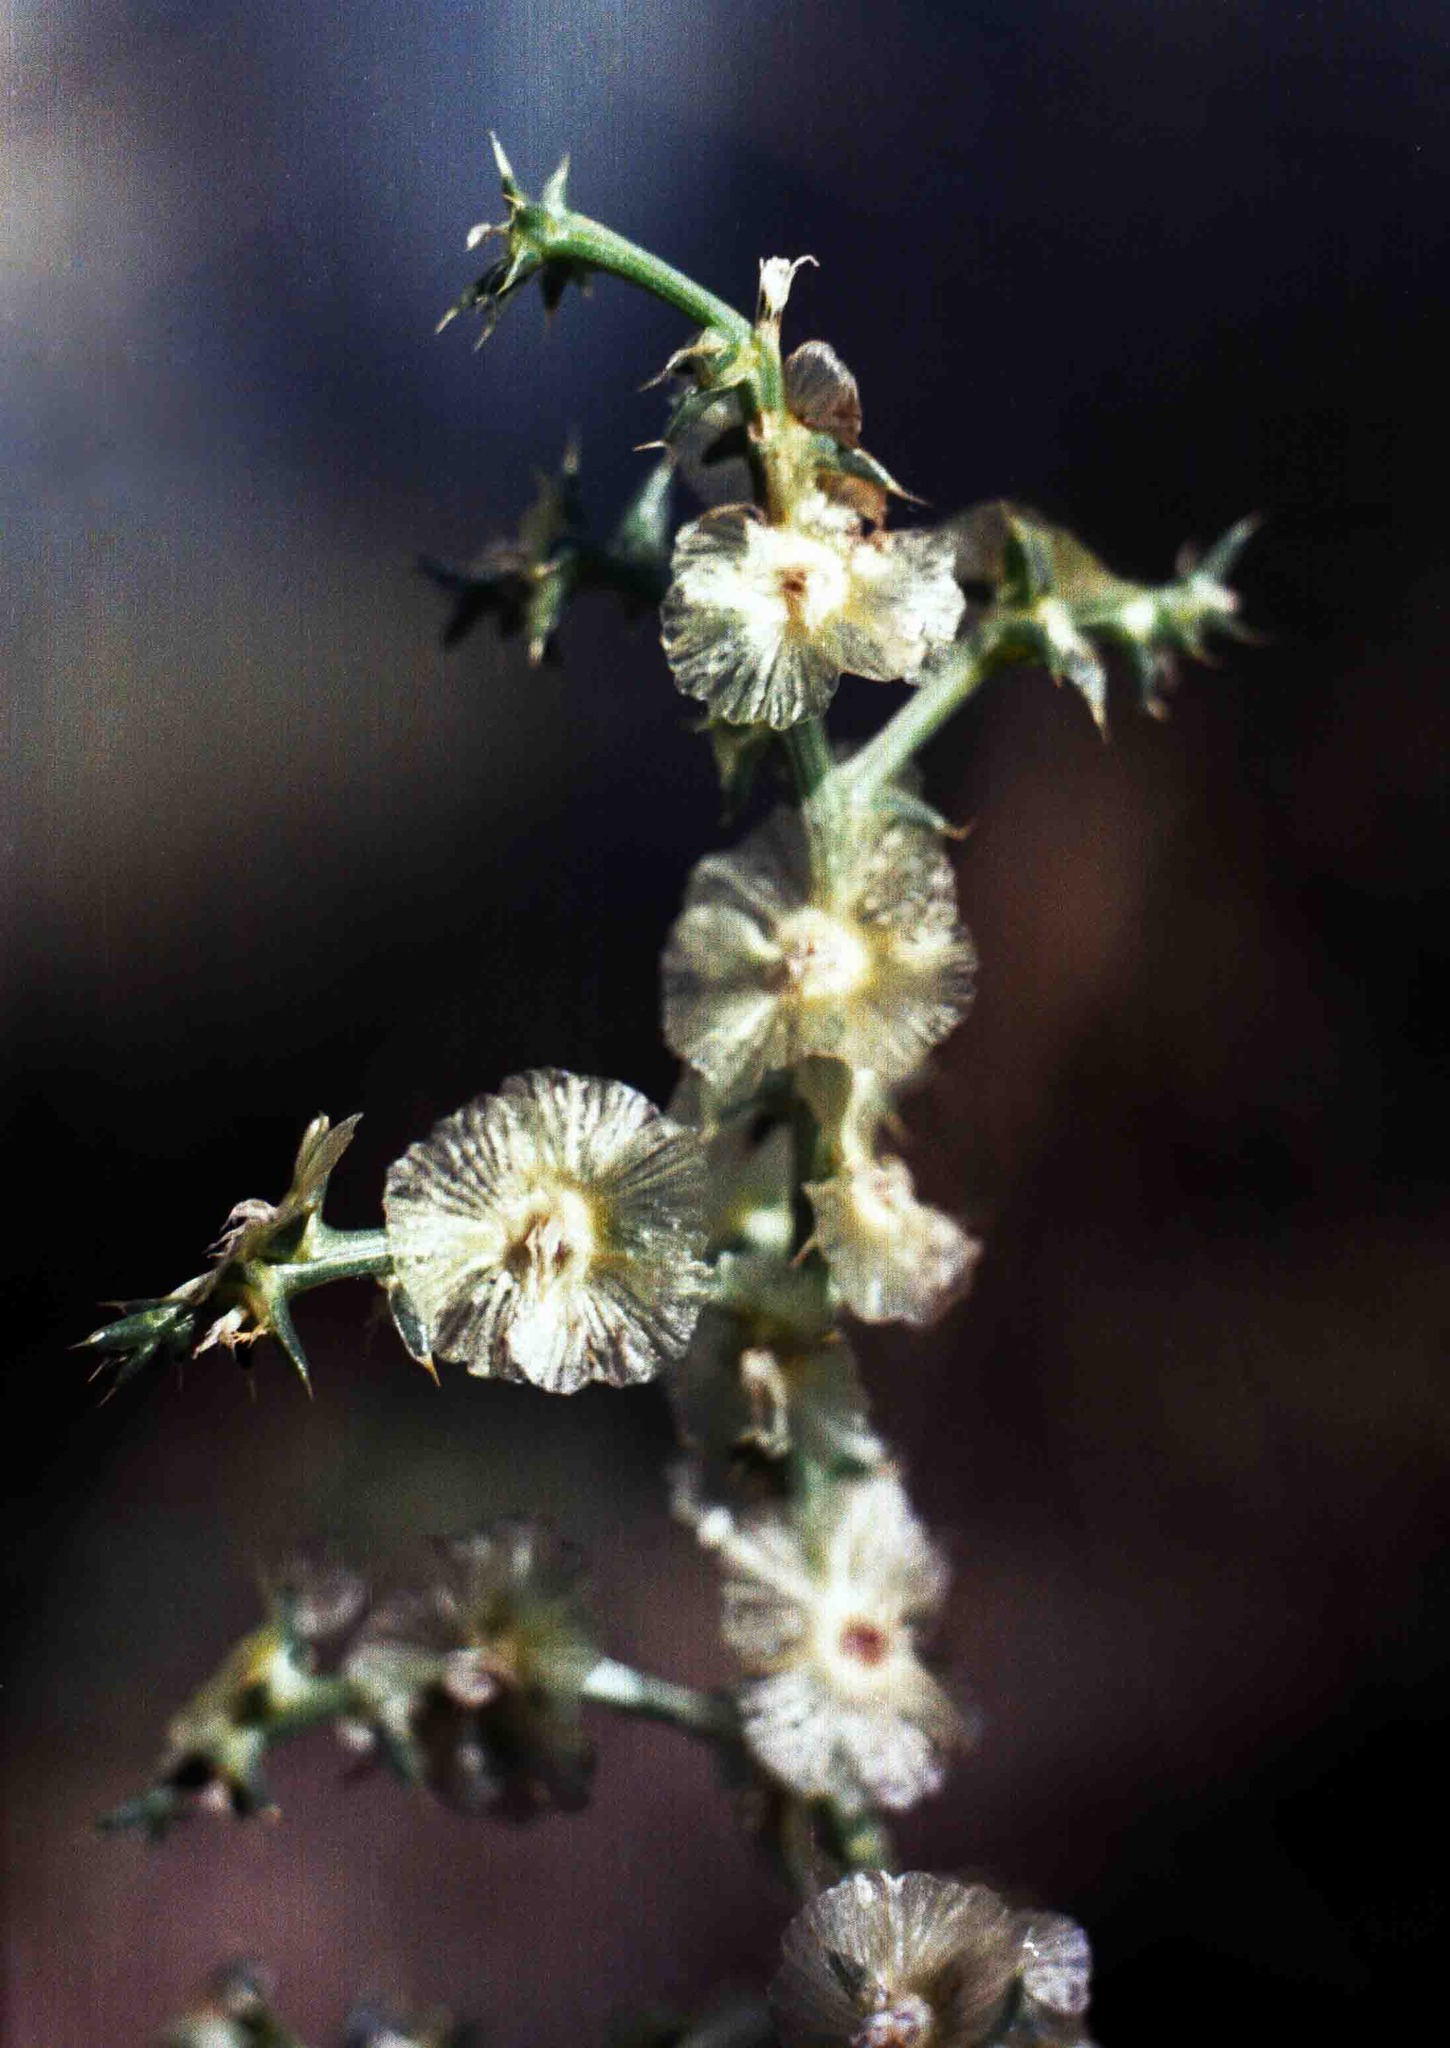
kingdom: Plantae
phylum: Tracheophyta
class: Magnoliopsida
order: Caryophyllales
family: Amaranthaceae
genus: Salsola
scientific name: Salsola tamamschjanae
